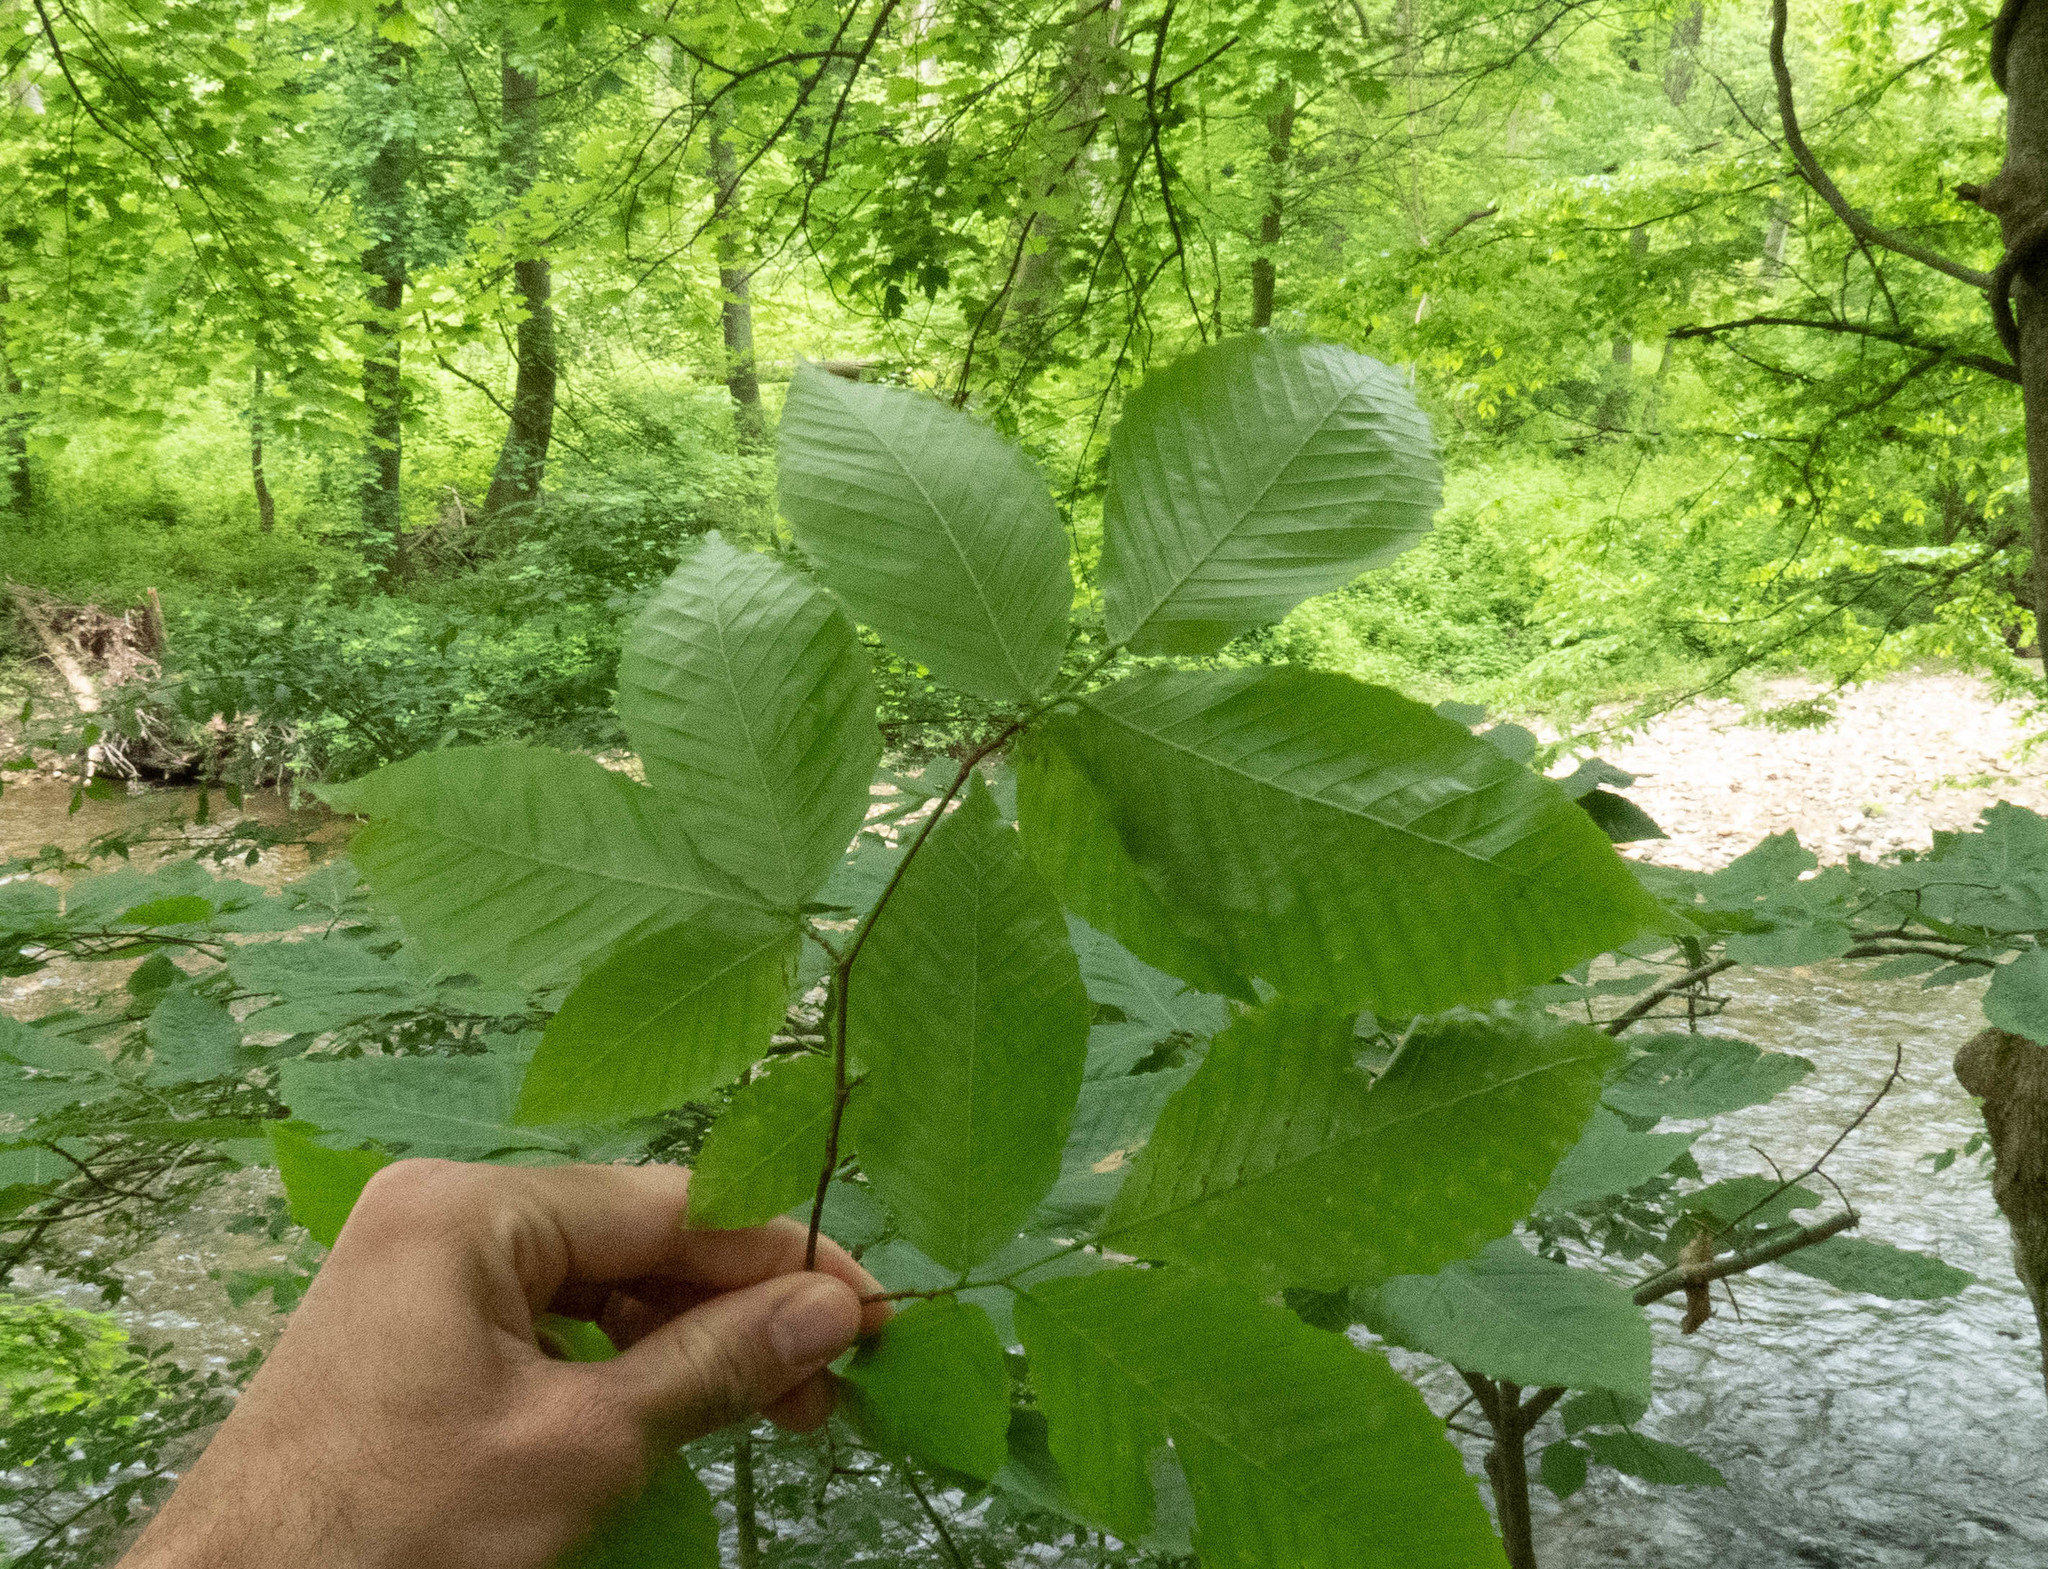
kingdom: Plantae
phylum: Tracheophyta
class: Magnoliopsida
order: Fagales
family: Fagaceae
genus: Fagus
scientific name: Fagus grandifolia
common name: American beech
